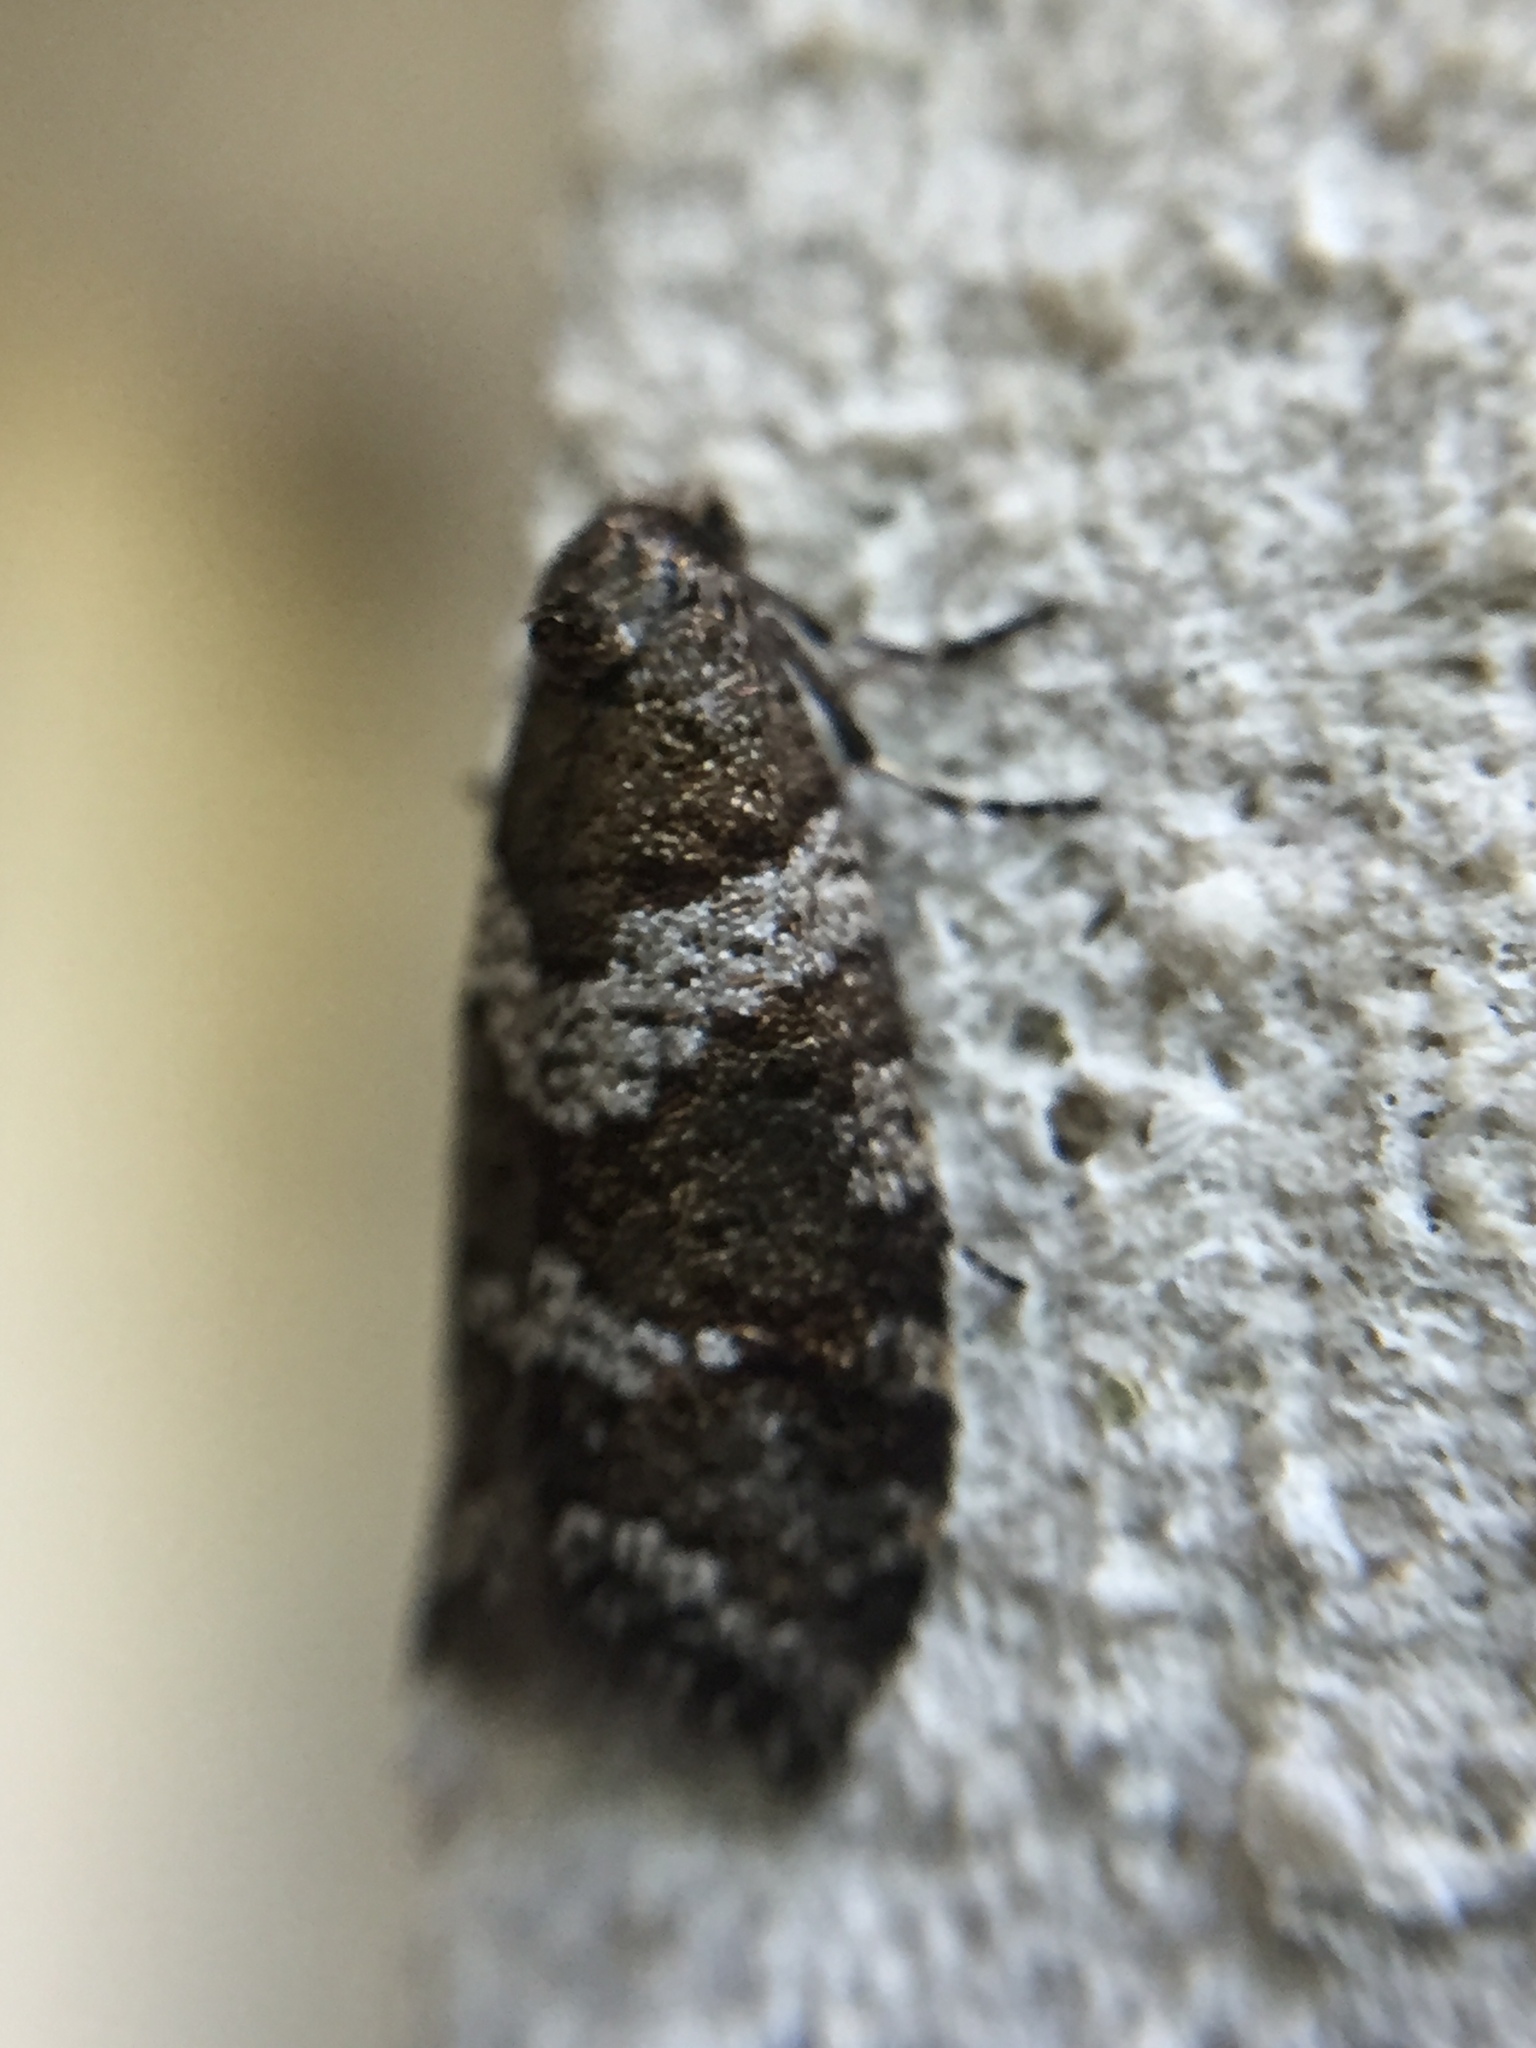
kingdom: Animalia
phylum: Arthropoda
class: Insecta
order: Lepidoptera
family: Psychidae
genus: Lepidoscia
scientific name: Lepidoscia heliochares
